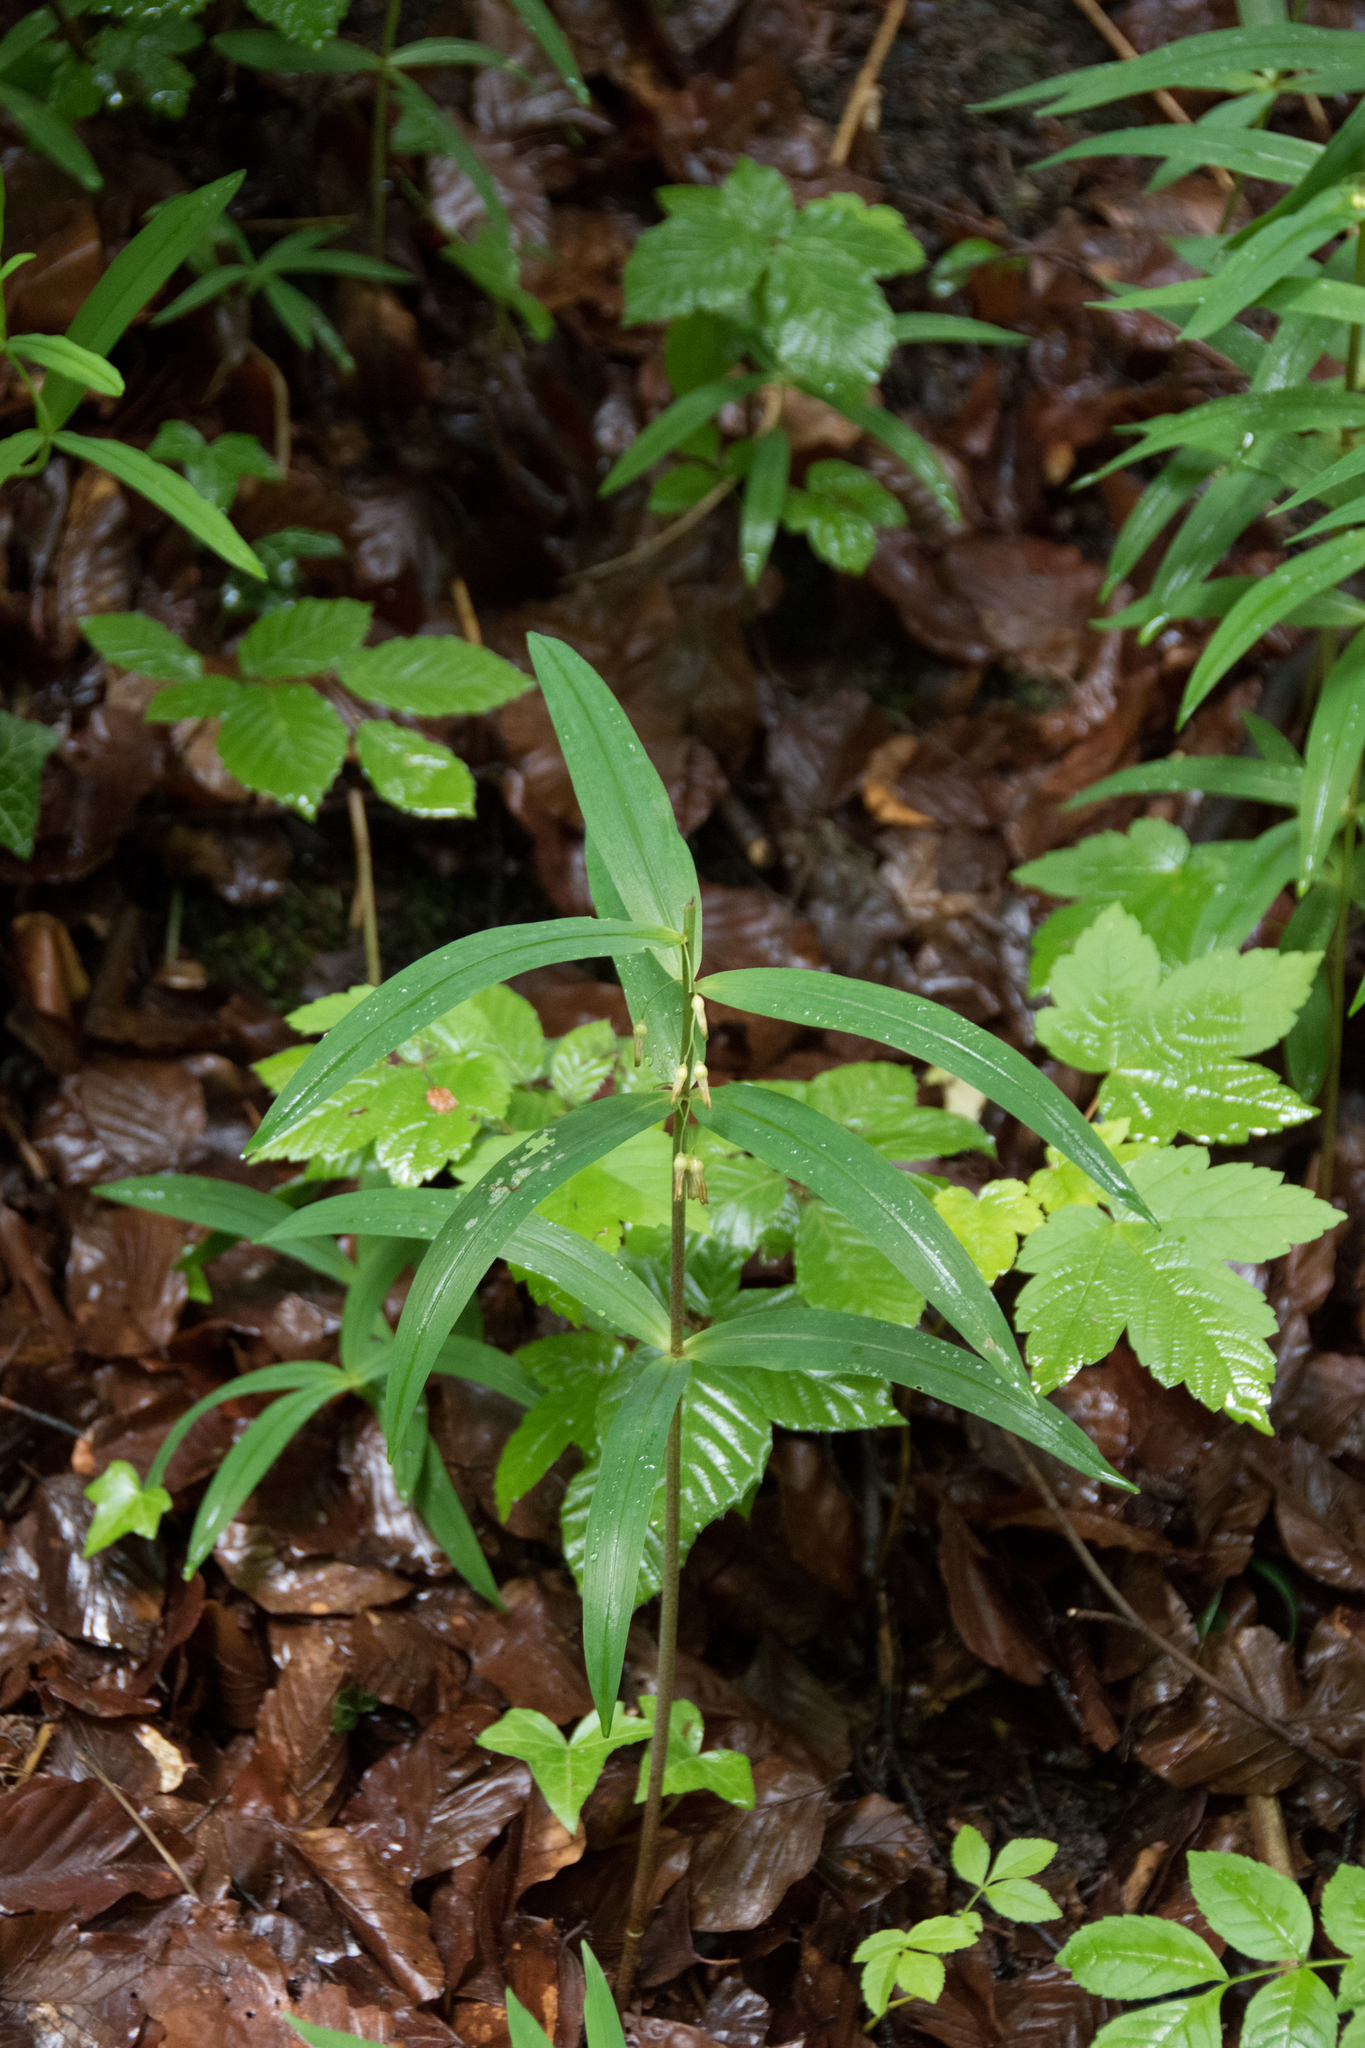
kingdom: Plantae
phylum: Tracheophyta
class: Liliopsida
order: Asparagales
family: Asparagaceae
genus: Polygonatum
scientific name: Polygonatum verticillatum
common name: Whorled solomon's-seal
